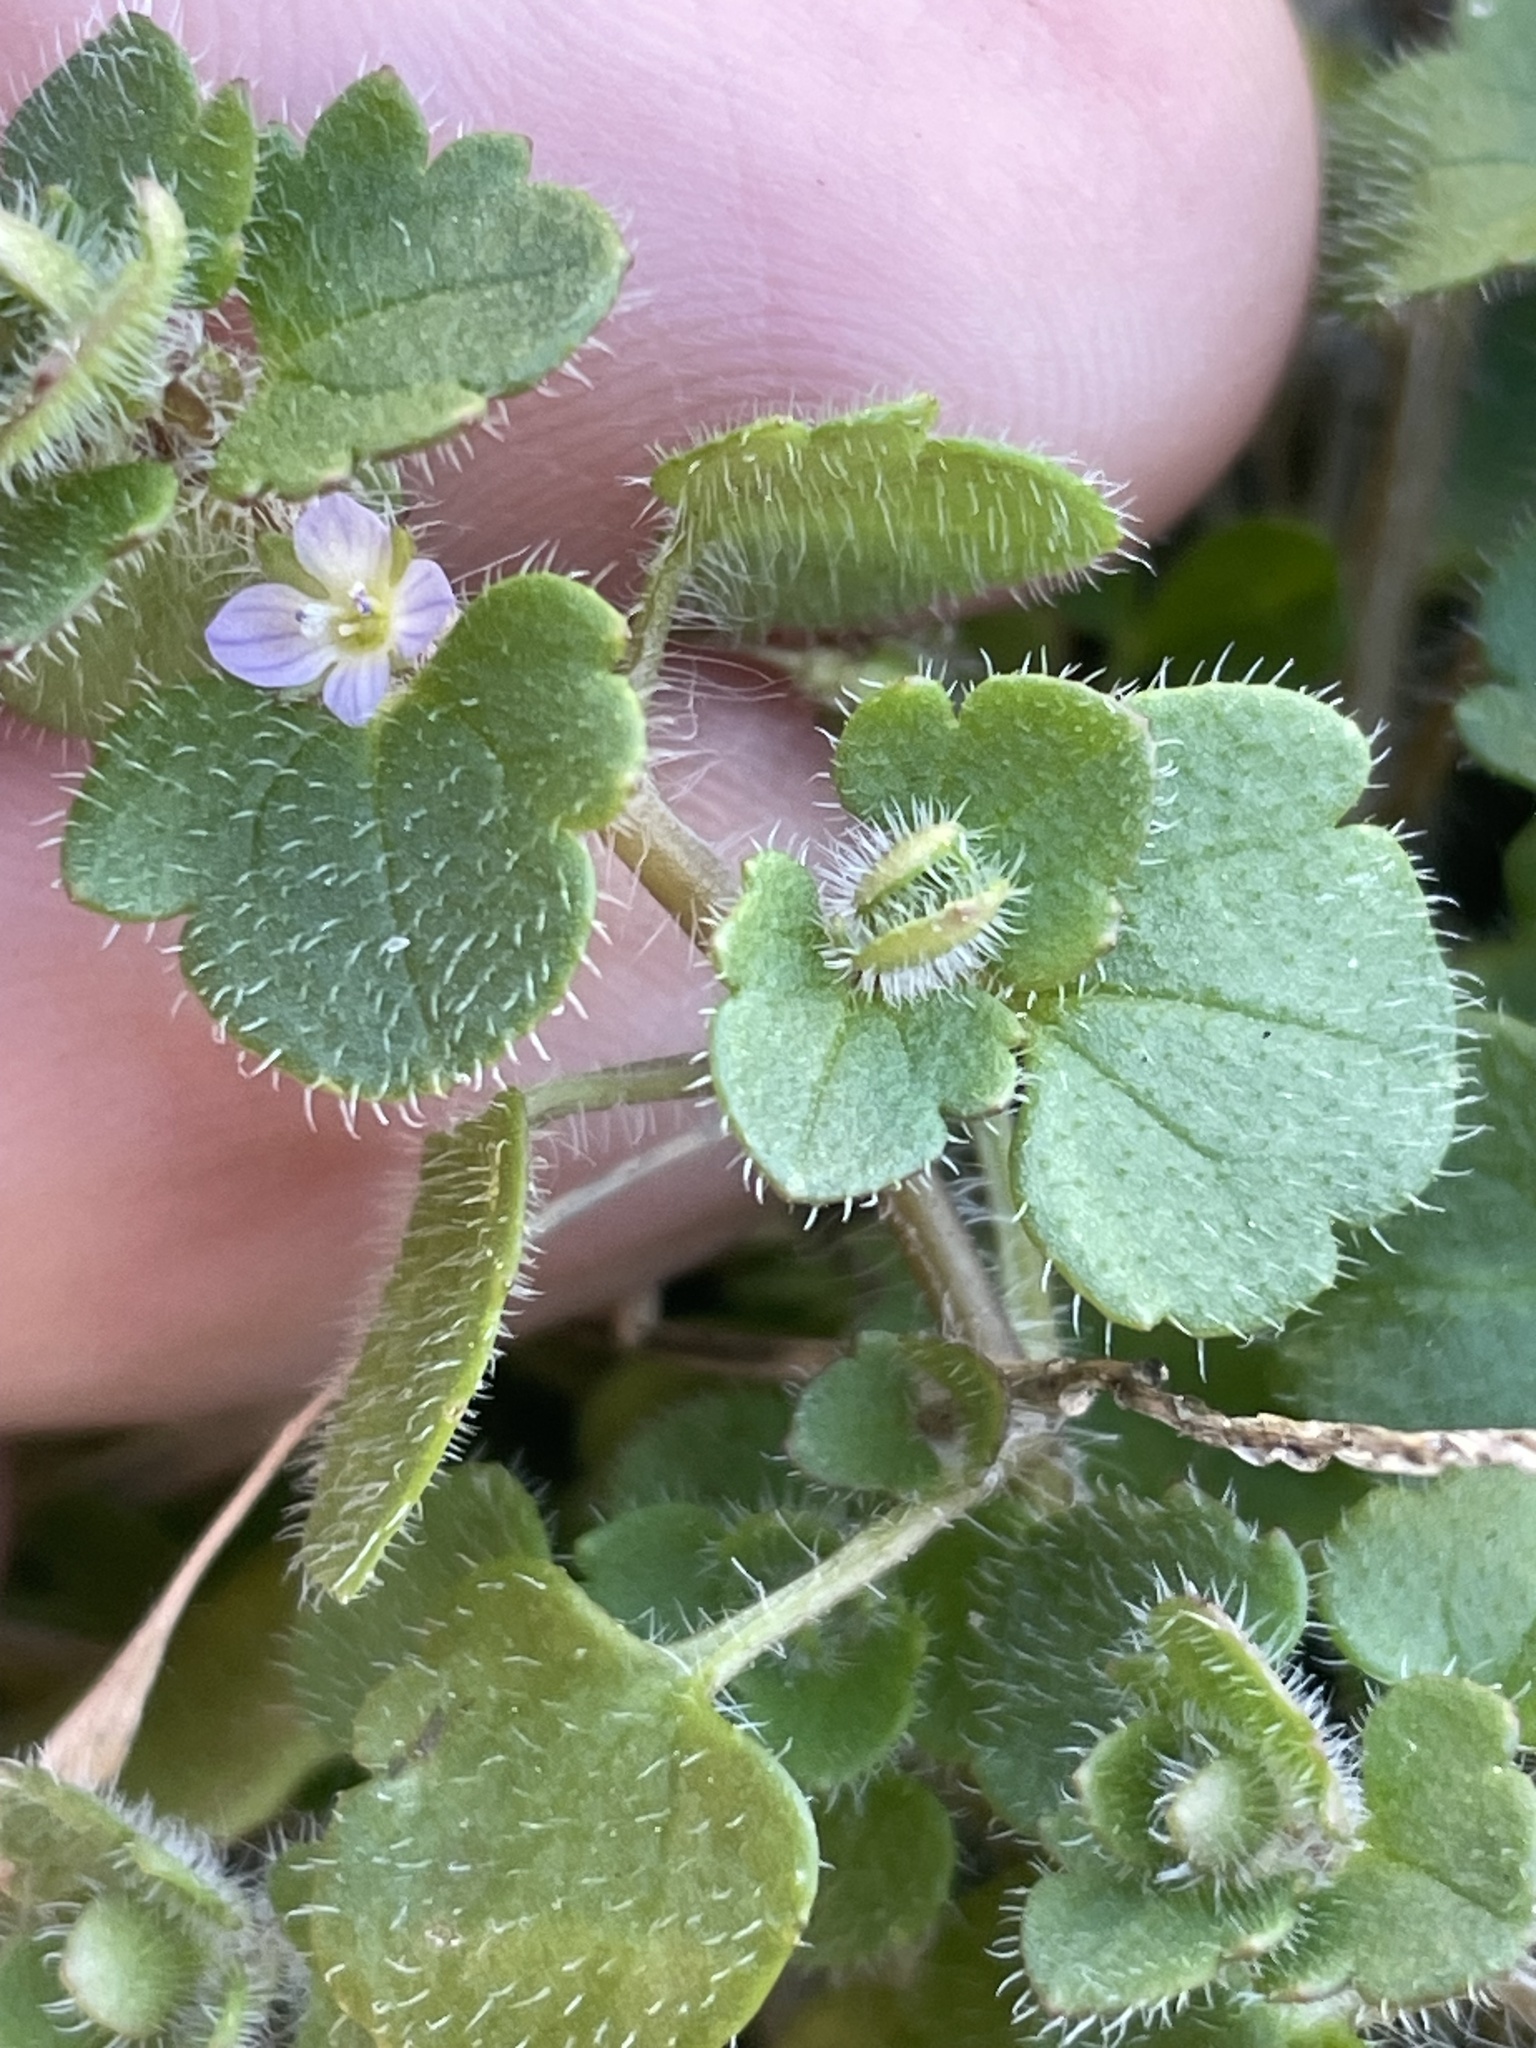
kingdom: Plantae
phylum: Tracheophyta
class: Magnoliopsida
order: Lamiales
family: Plantaginaceae
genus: Veronica
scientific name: Veronica hederifolia
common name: Ivy-leaved speedwell
